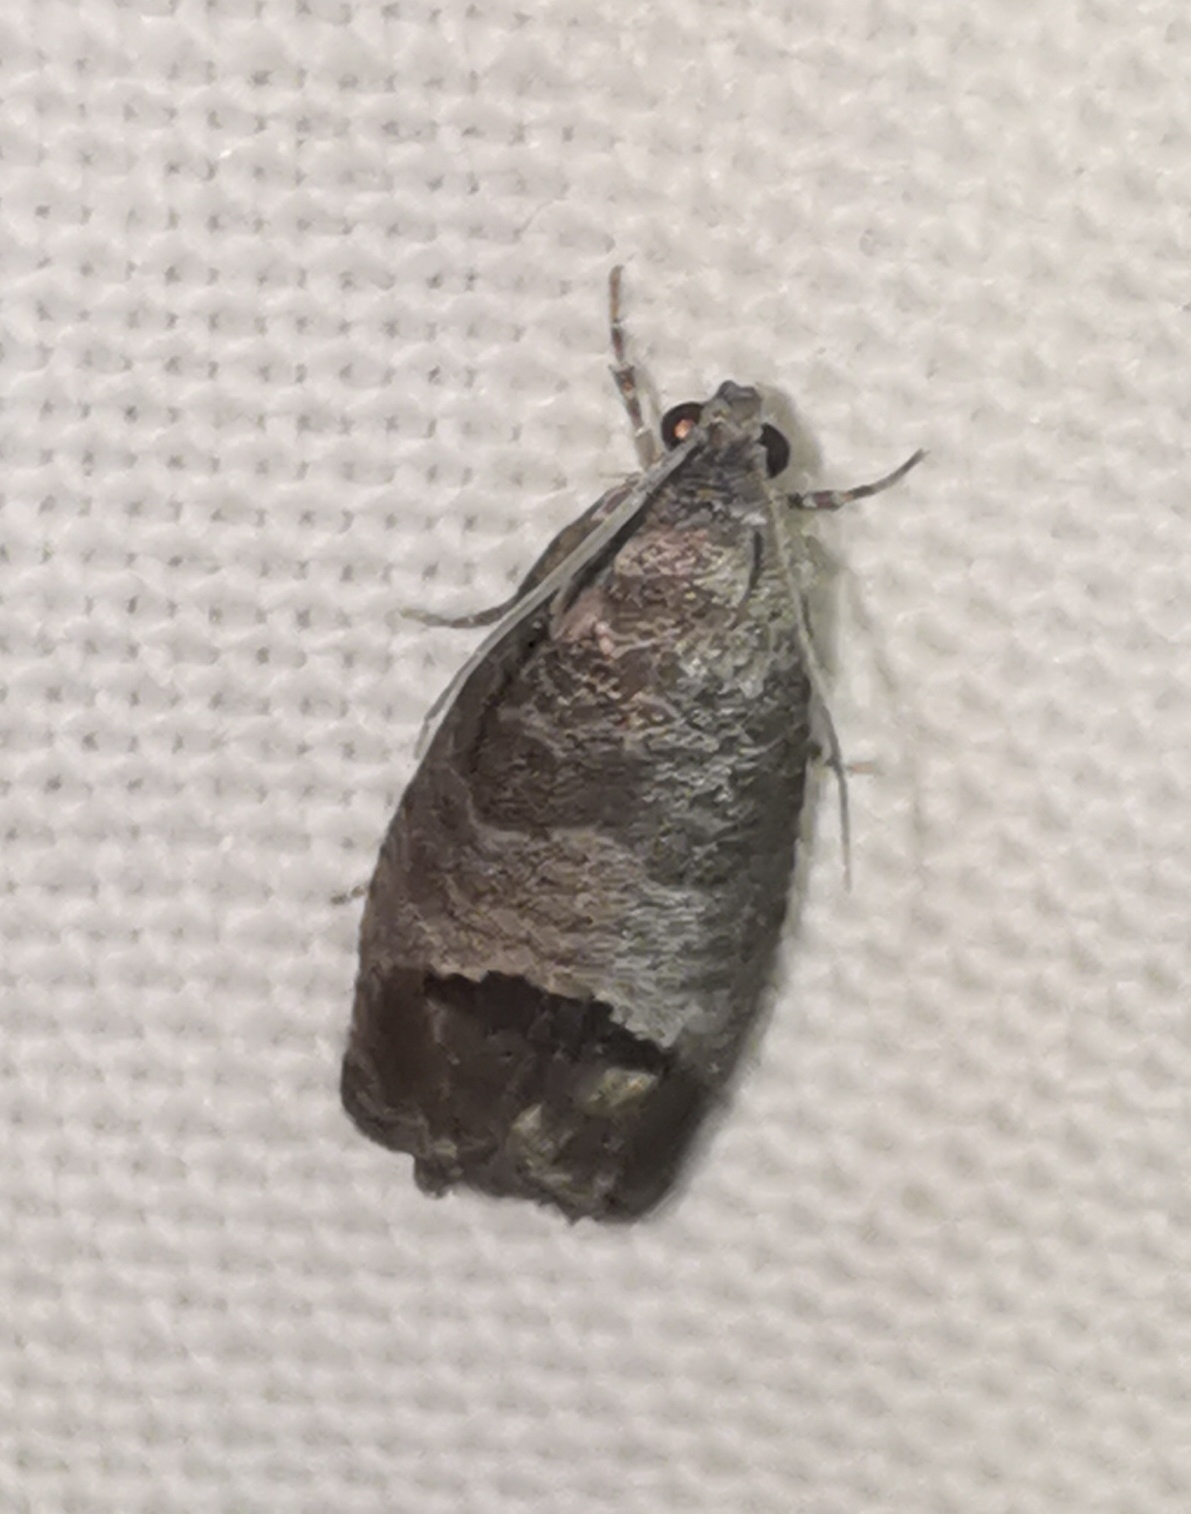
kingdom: Animalia
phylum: Arthropoda
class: Insecta
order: Lepidoptera
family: Tortricidae
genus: Cydia
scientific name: Cydia pomonella
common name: Codling moth
